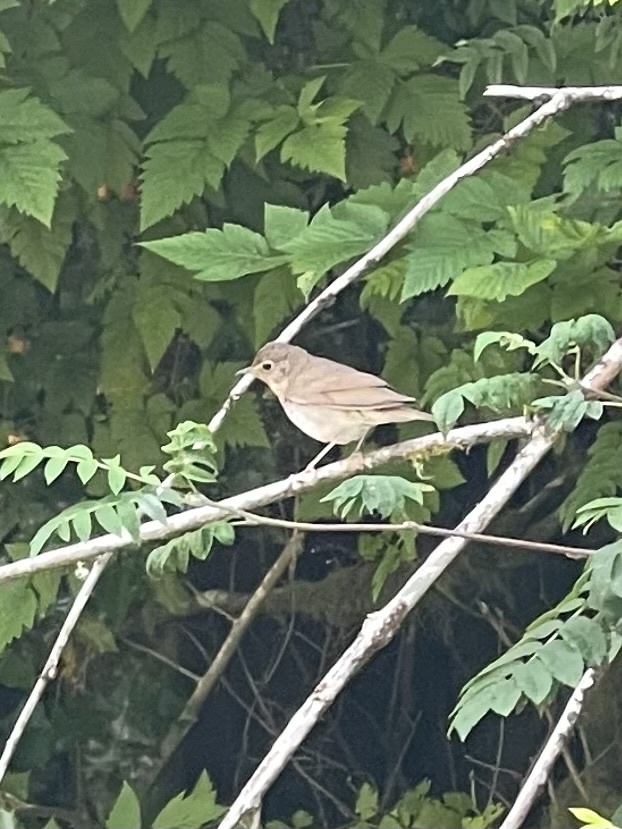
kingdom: Animalia
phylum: Chordata
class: Aves
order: Passeriformes
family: Turdidae
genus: Catharus
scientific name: Catharus ustulatus
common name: Swainson's thrush
